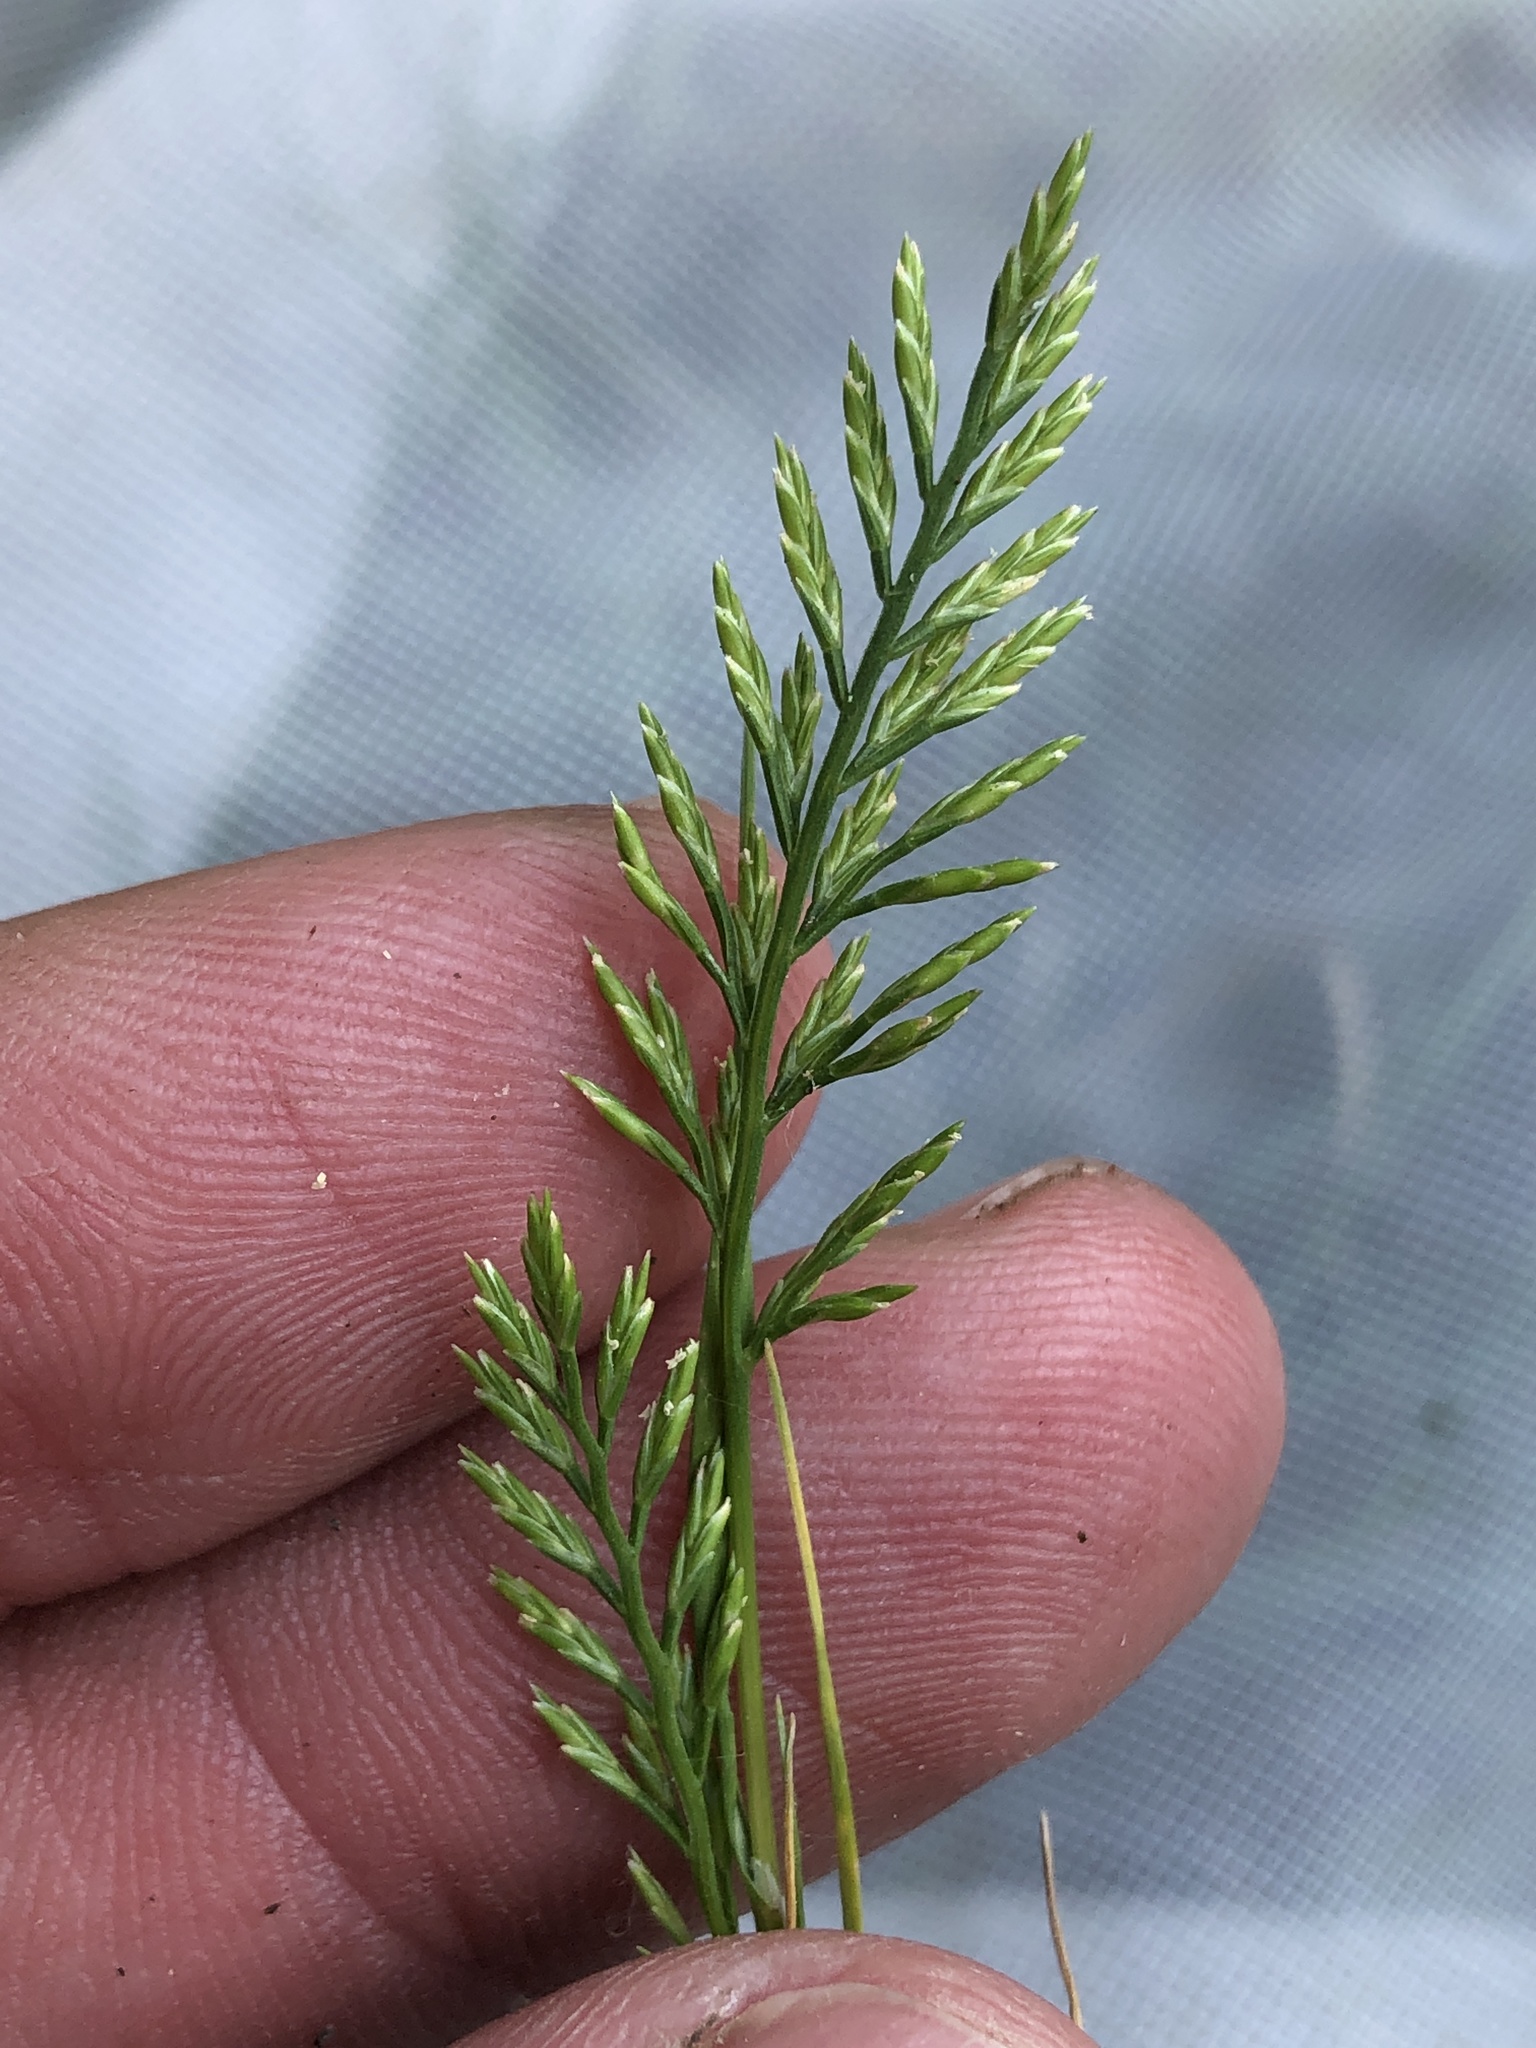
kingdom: Plantae
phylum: Tracheophyta
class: Liliopsida
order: Poales
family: Poaceae
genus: Catapodium
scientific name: Catapodium rigidum
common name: Fern-grass
